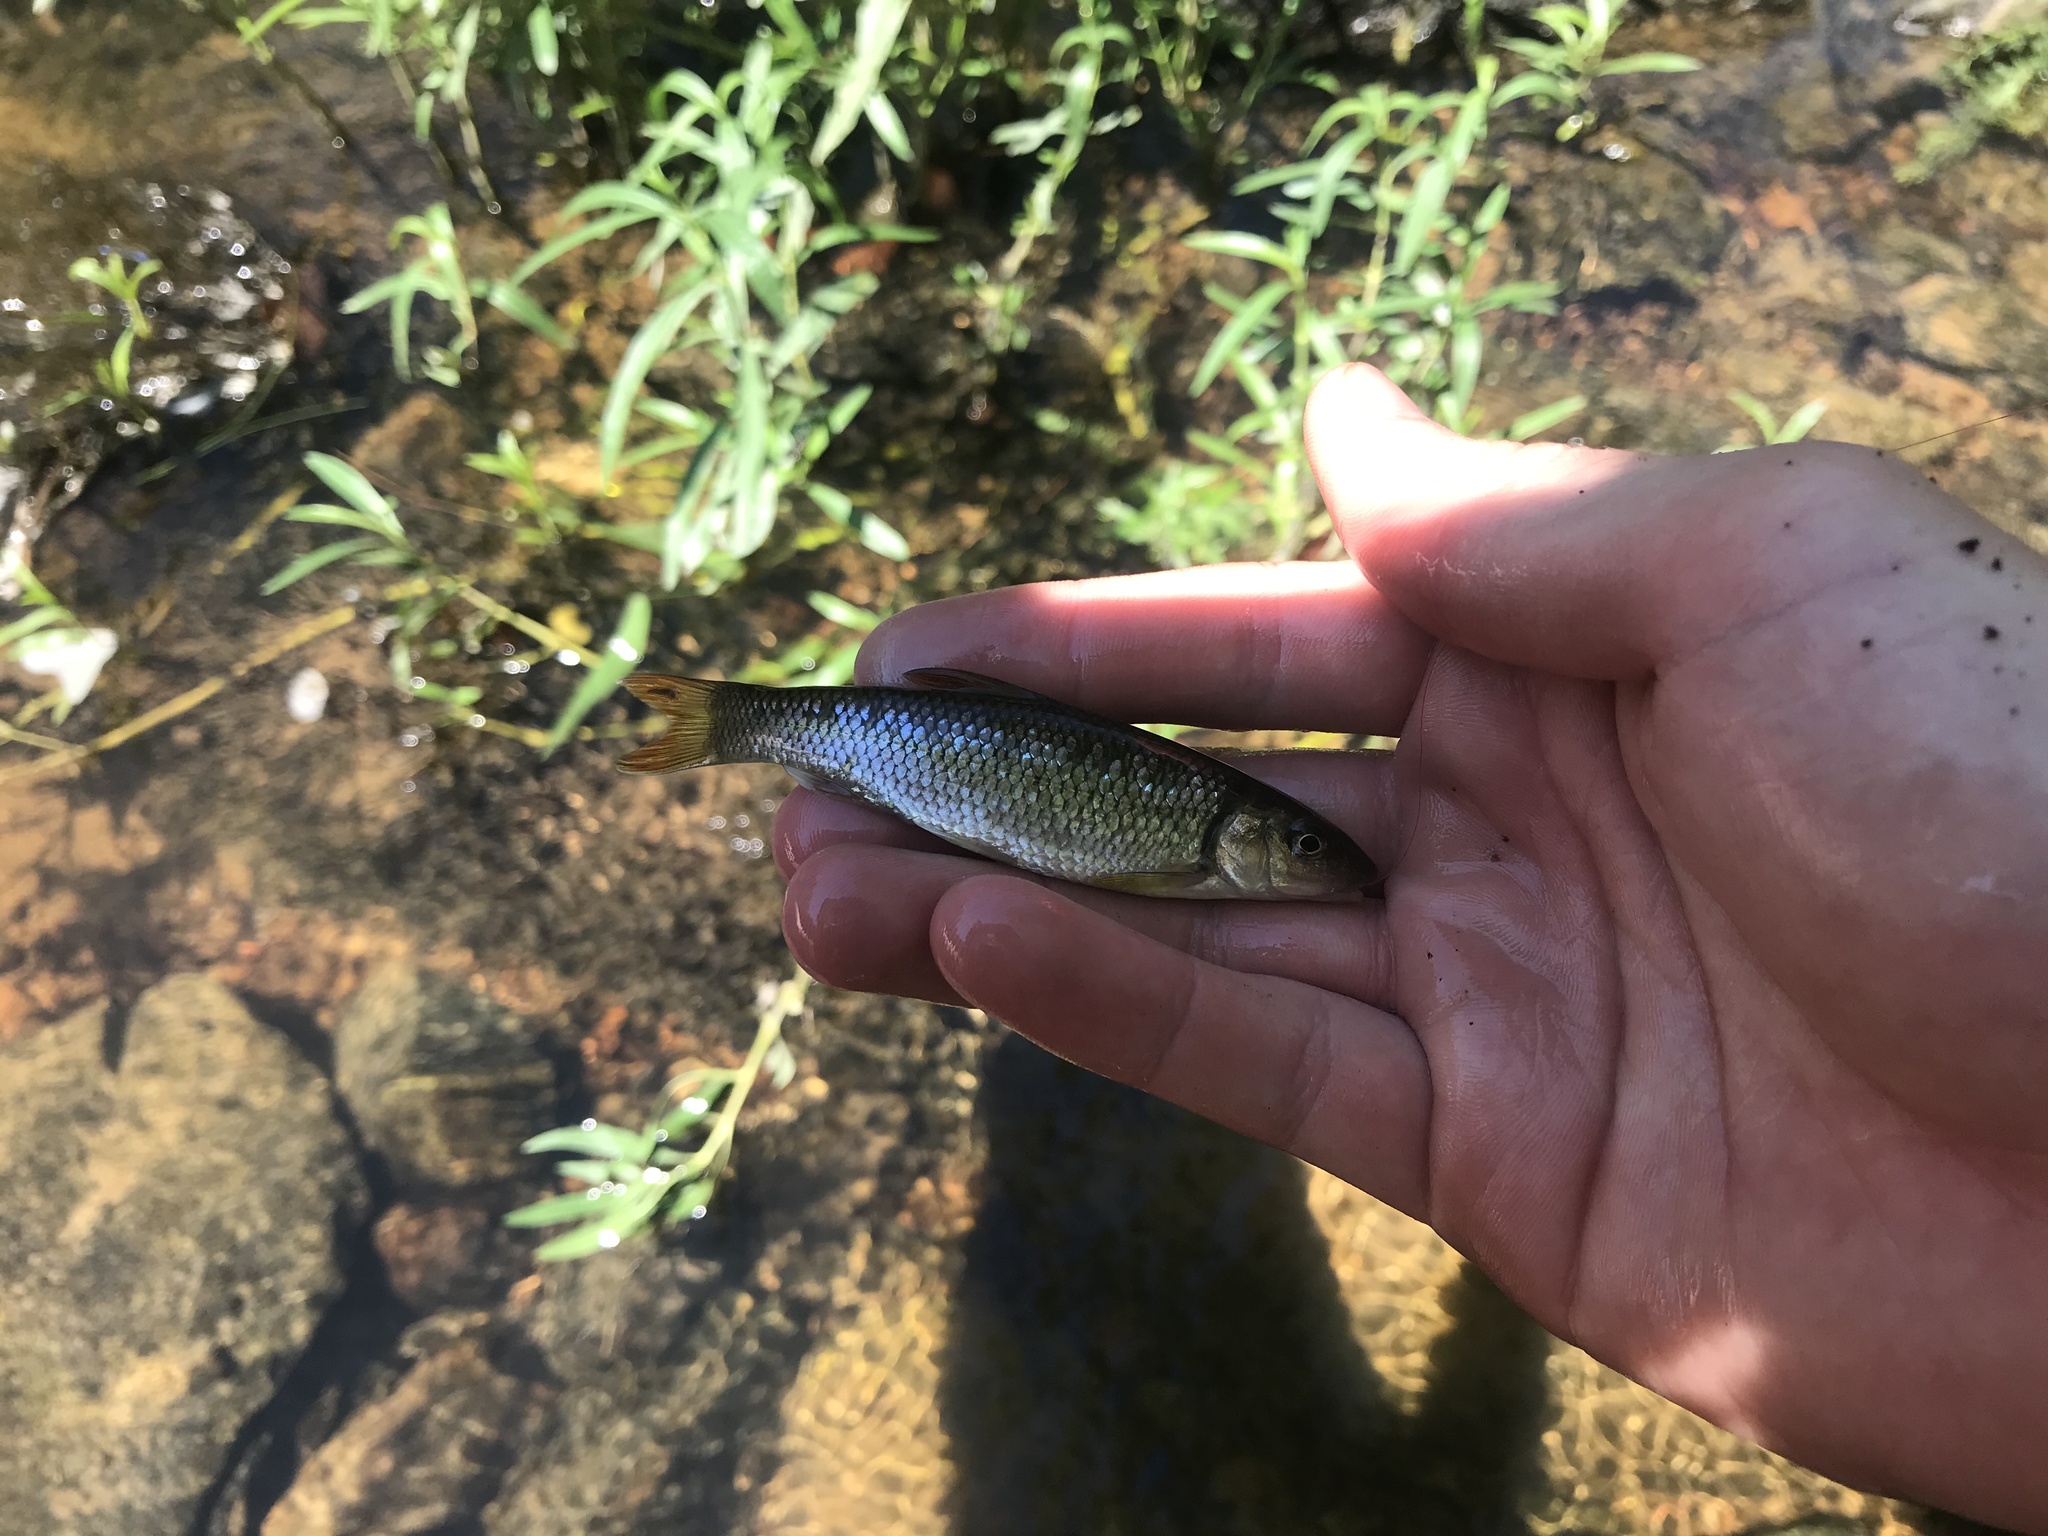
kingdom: Animalia
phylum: Chordata
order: Cypriniformes
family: Cyprinidae
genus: Nocomis
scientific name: Nocomis raneyi
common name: Bull chub
